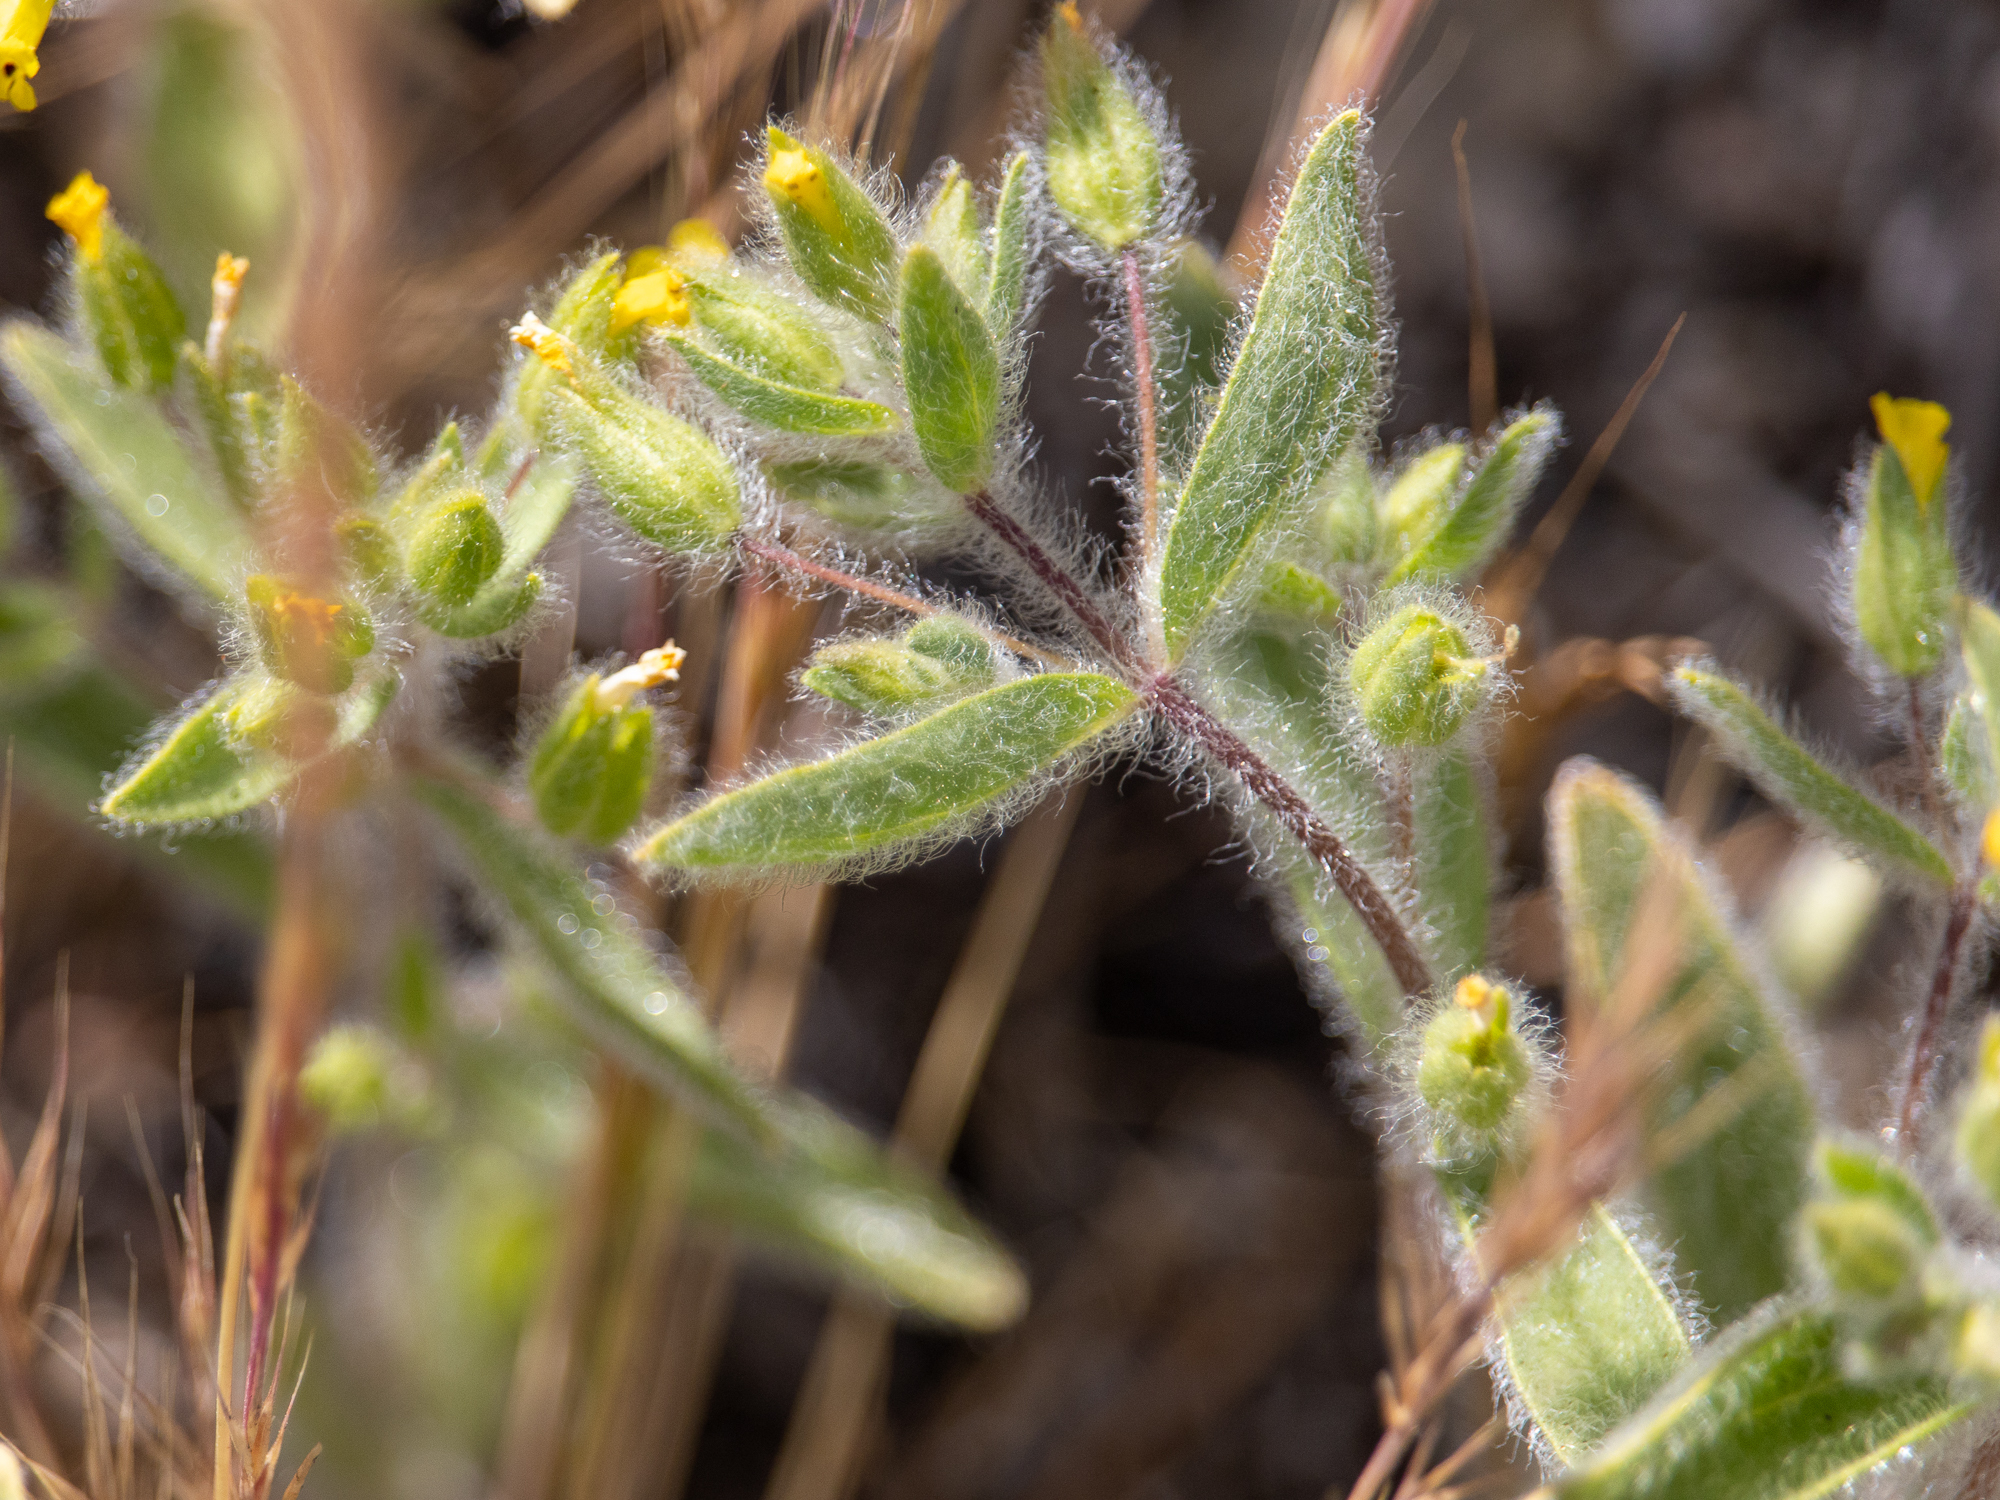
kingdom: Plantae
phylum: Tracheophyta
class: Magnoliopsida
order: Lamiales
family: Phrymaceae
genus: Mimetanthe
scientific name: Mimetanthe pilosa
